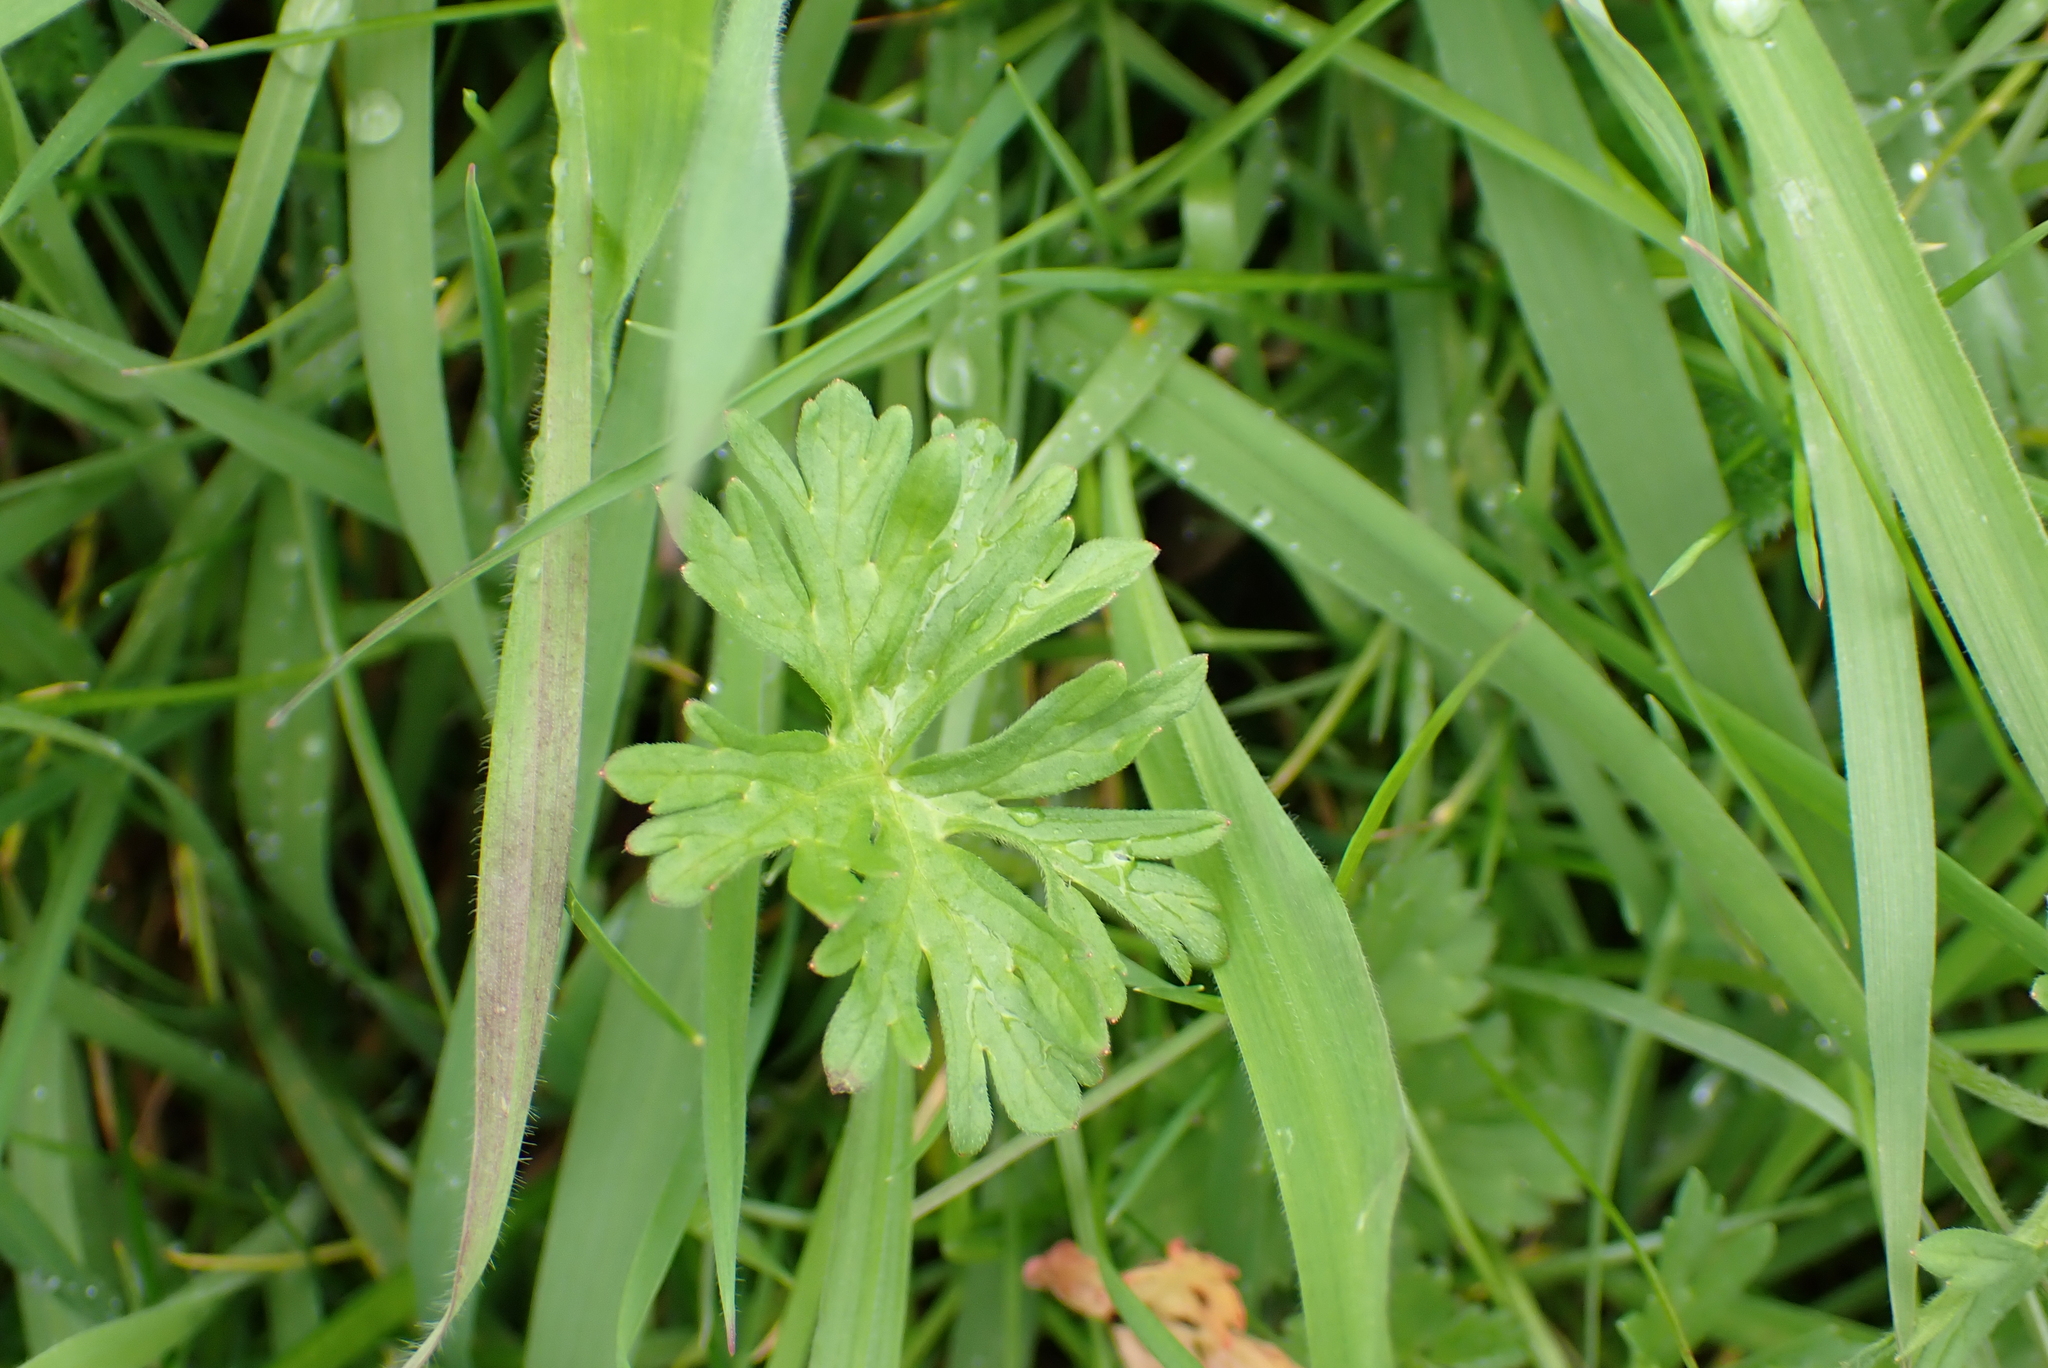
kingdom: Plantae
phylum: Tracheophyta
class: Magnoliopsida
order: Geraniales
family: Geraniaceae
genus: Geranium
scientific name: Geranium dissectum
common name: Cut-leaved crane's-bill
